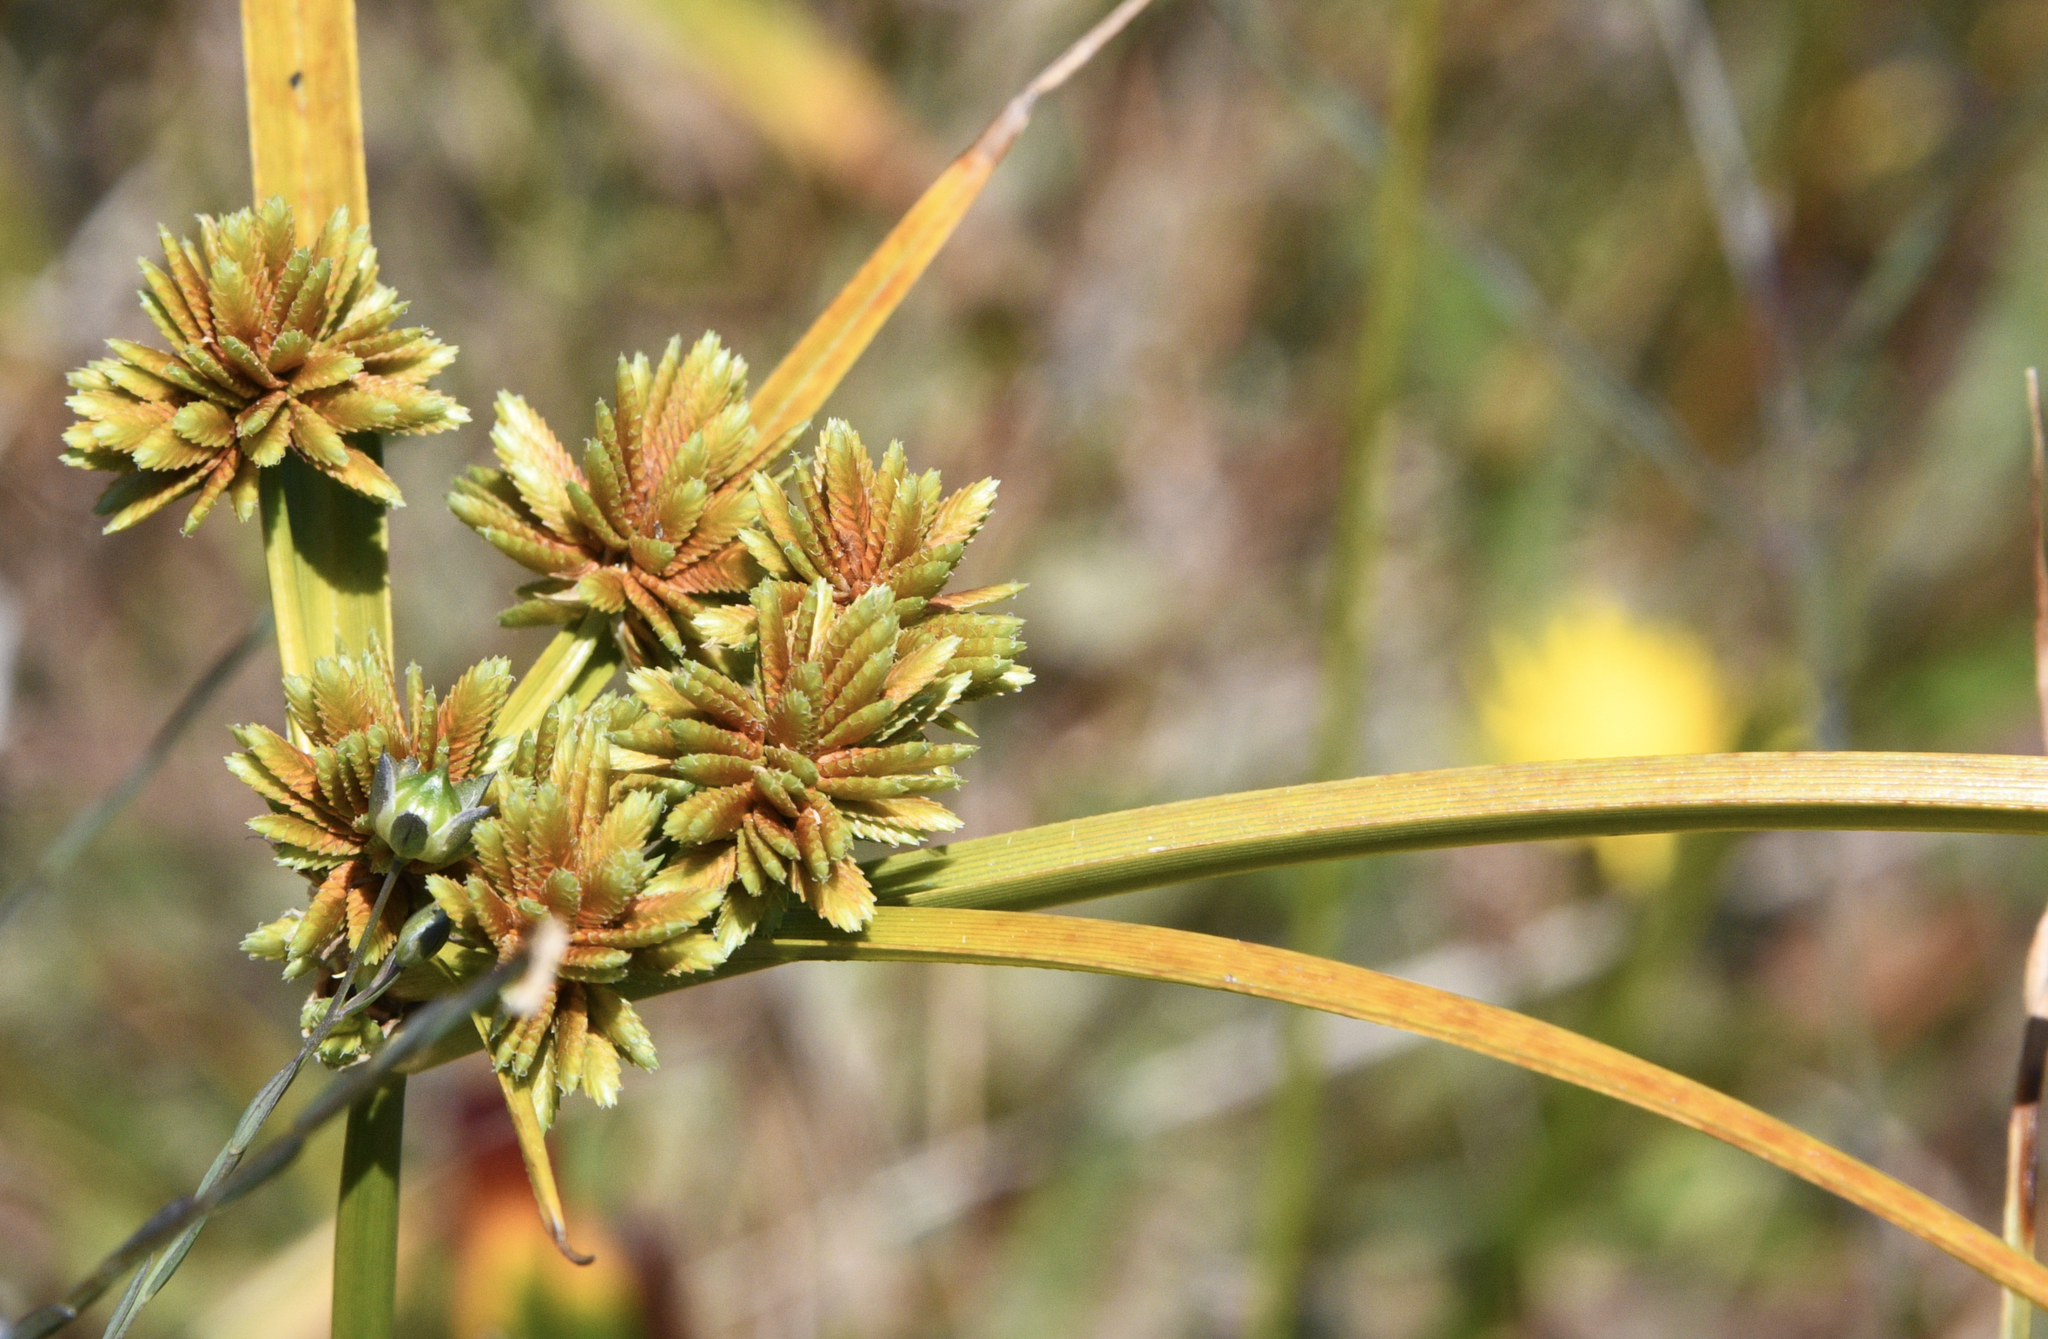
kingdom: Plantae
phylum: Tracheophyta
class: Liliopsida
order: Poales
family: Cyperaceae
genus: Cyperus
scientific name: Cyperus eragrostis
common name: Tall flatsedge
